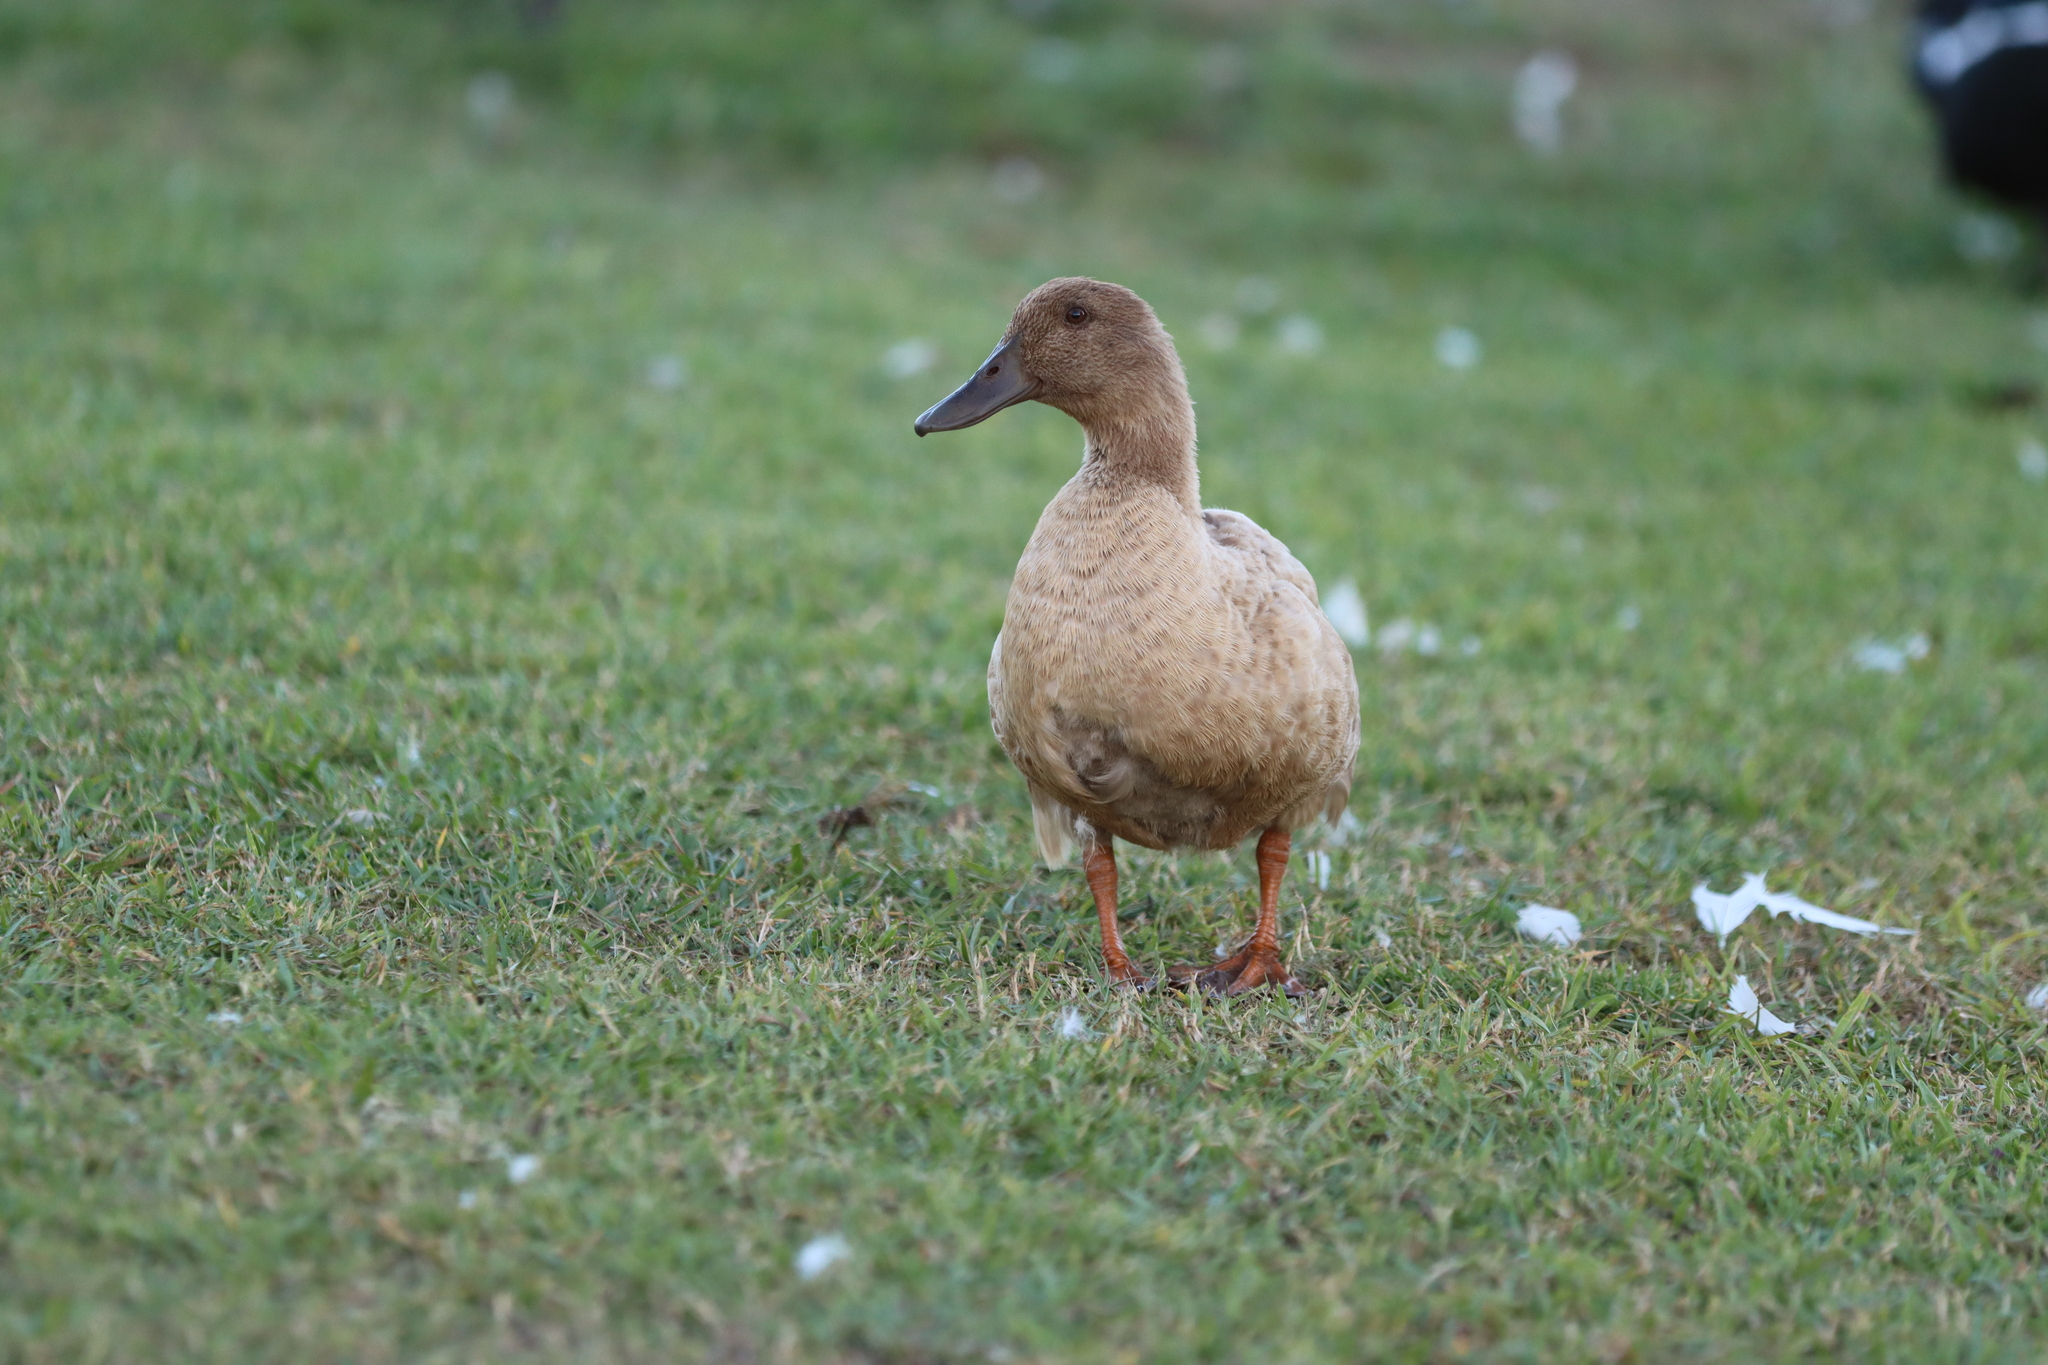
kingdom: Animalia
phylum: Chordata
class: Aves
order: Anseriformes
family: Anatidae
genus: Anas
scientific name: Anas platyrhynchos
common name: Mallard
